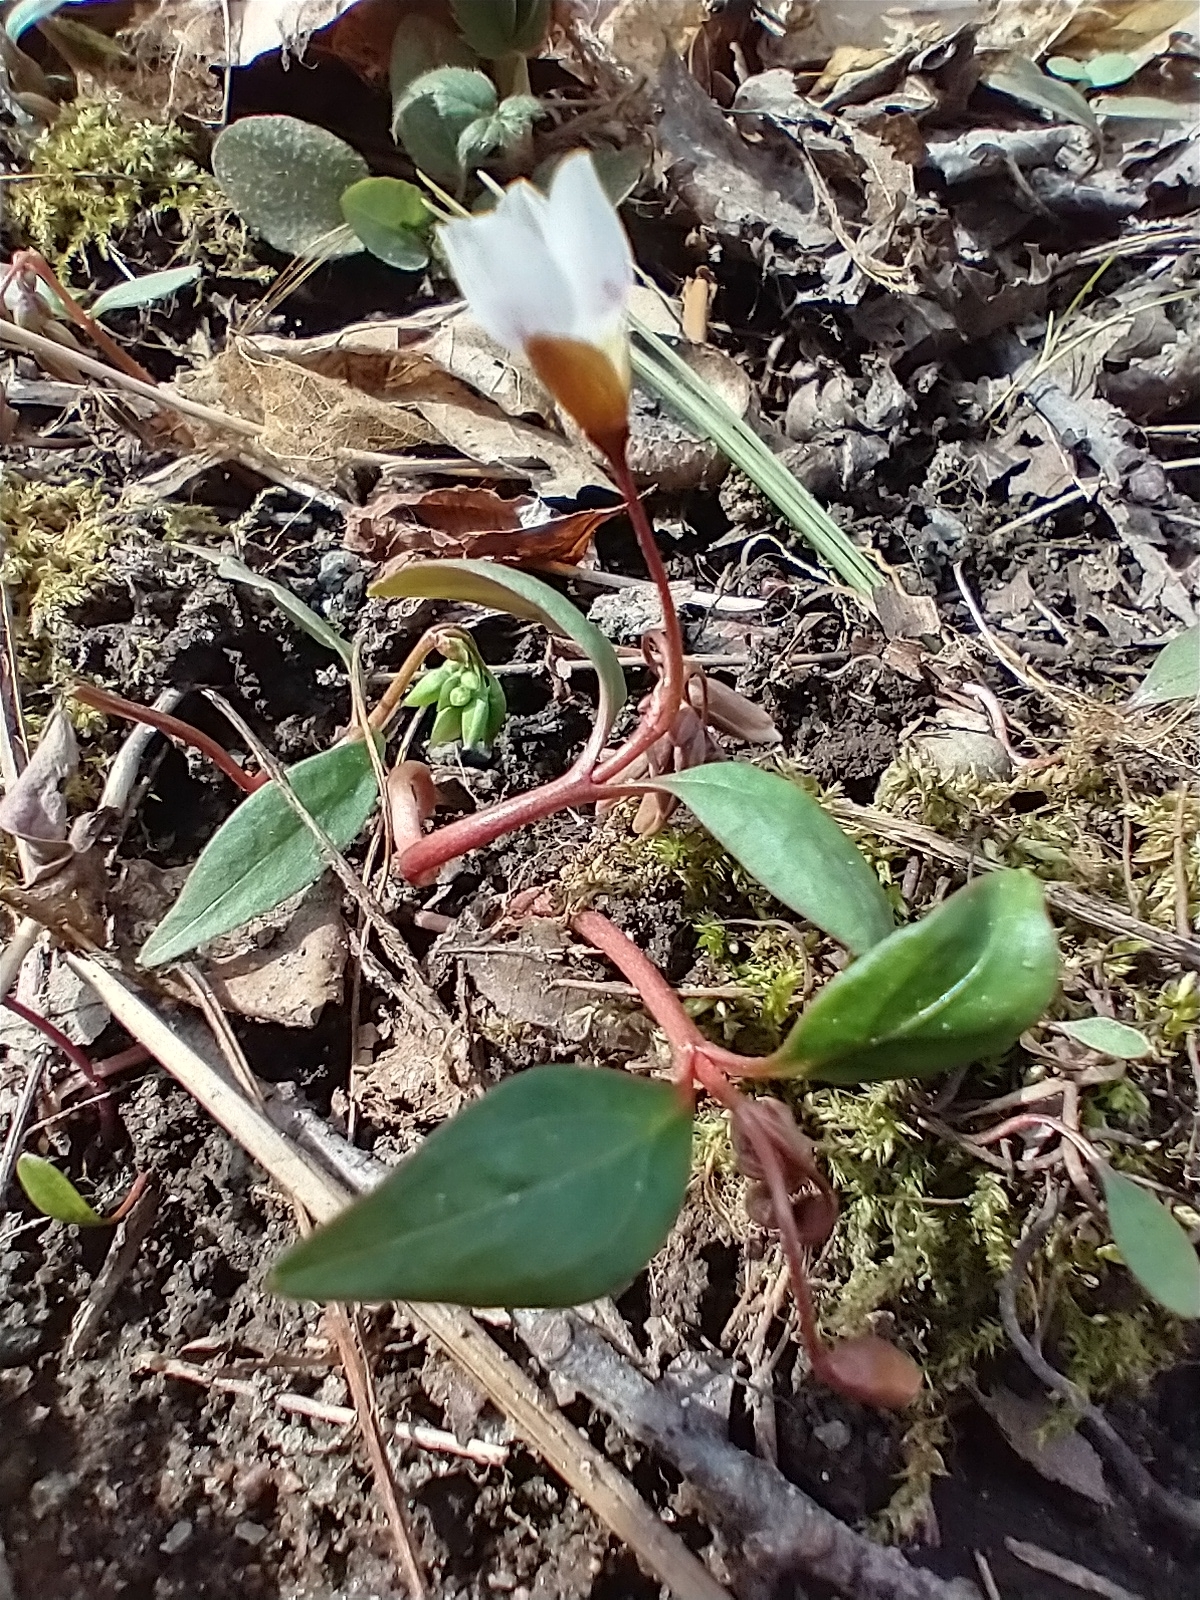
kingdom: Plantae
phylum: Tracheophyta
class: Magnoliopsida
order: Caryophyllales
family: Montiaceae
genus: Claytonia
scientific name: Claytonia caroliniana
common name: Carolina spring beauty
